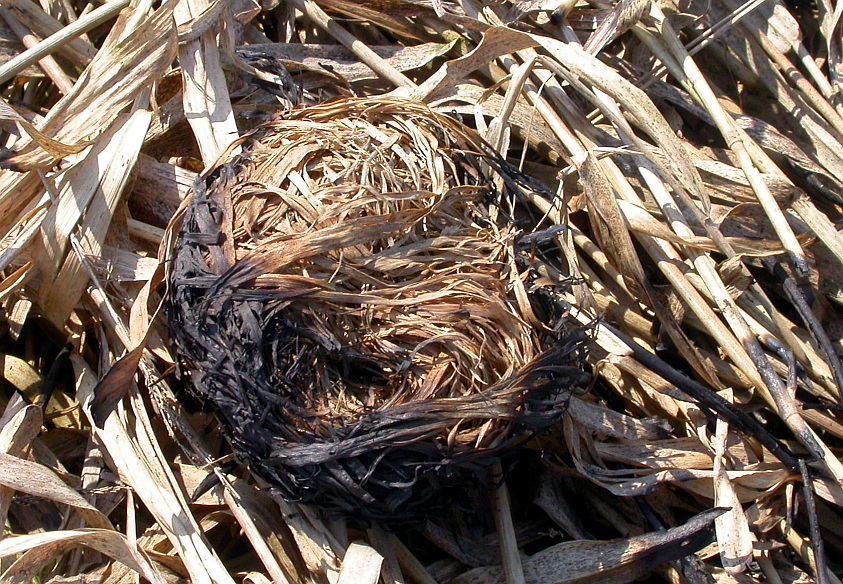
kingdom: Animalia
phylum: Chordata
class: Mammalia
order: Rodentia
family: Muridae
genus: Micromys
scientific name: Micromys minutus
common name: Harvest mouse
